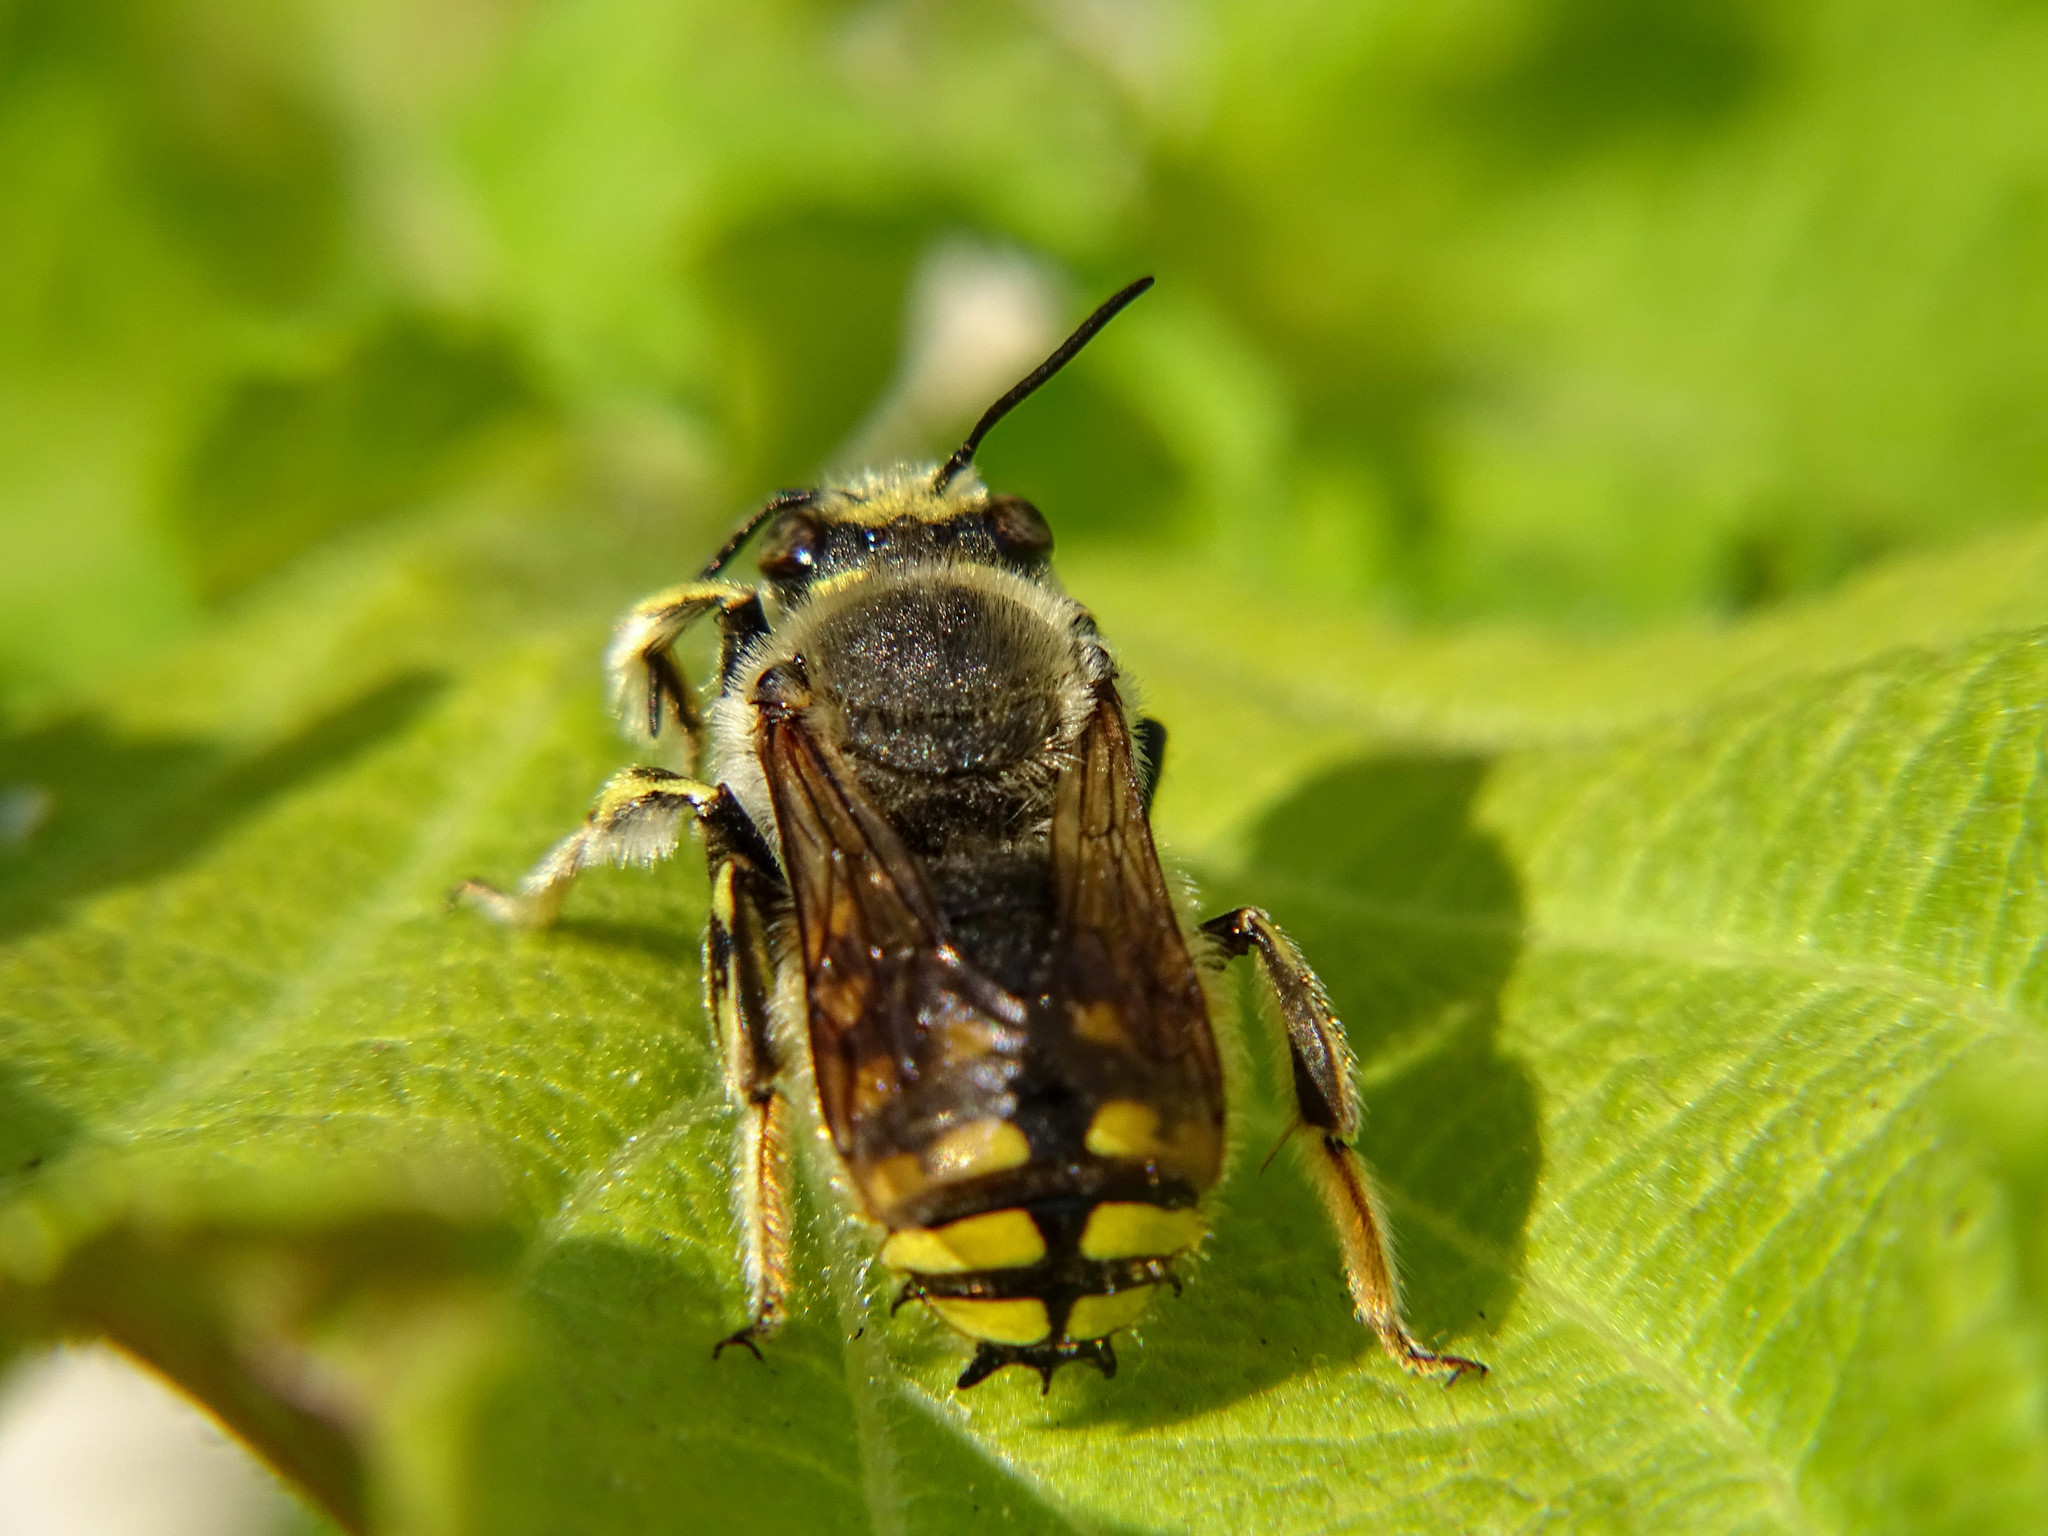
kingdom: Animalia
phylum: Arthropoda
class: Insecta
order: Hymenoptera
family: Megachilidae
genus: Anthidium
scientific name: Anthidium manicatum
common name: Wool carder bee
